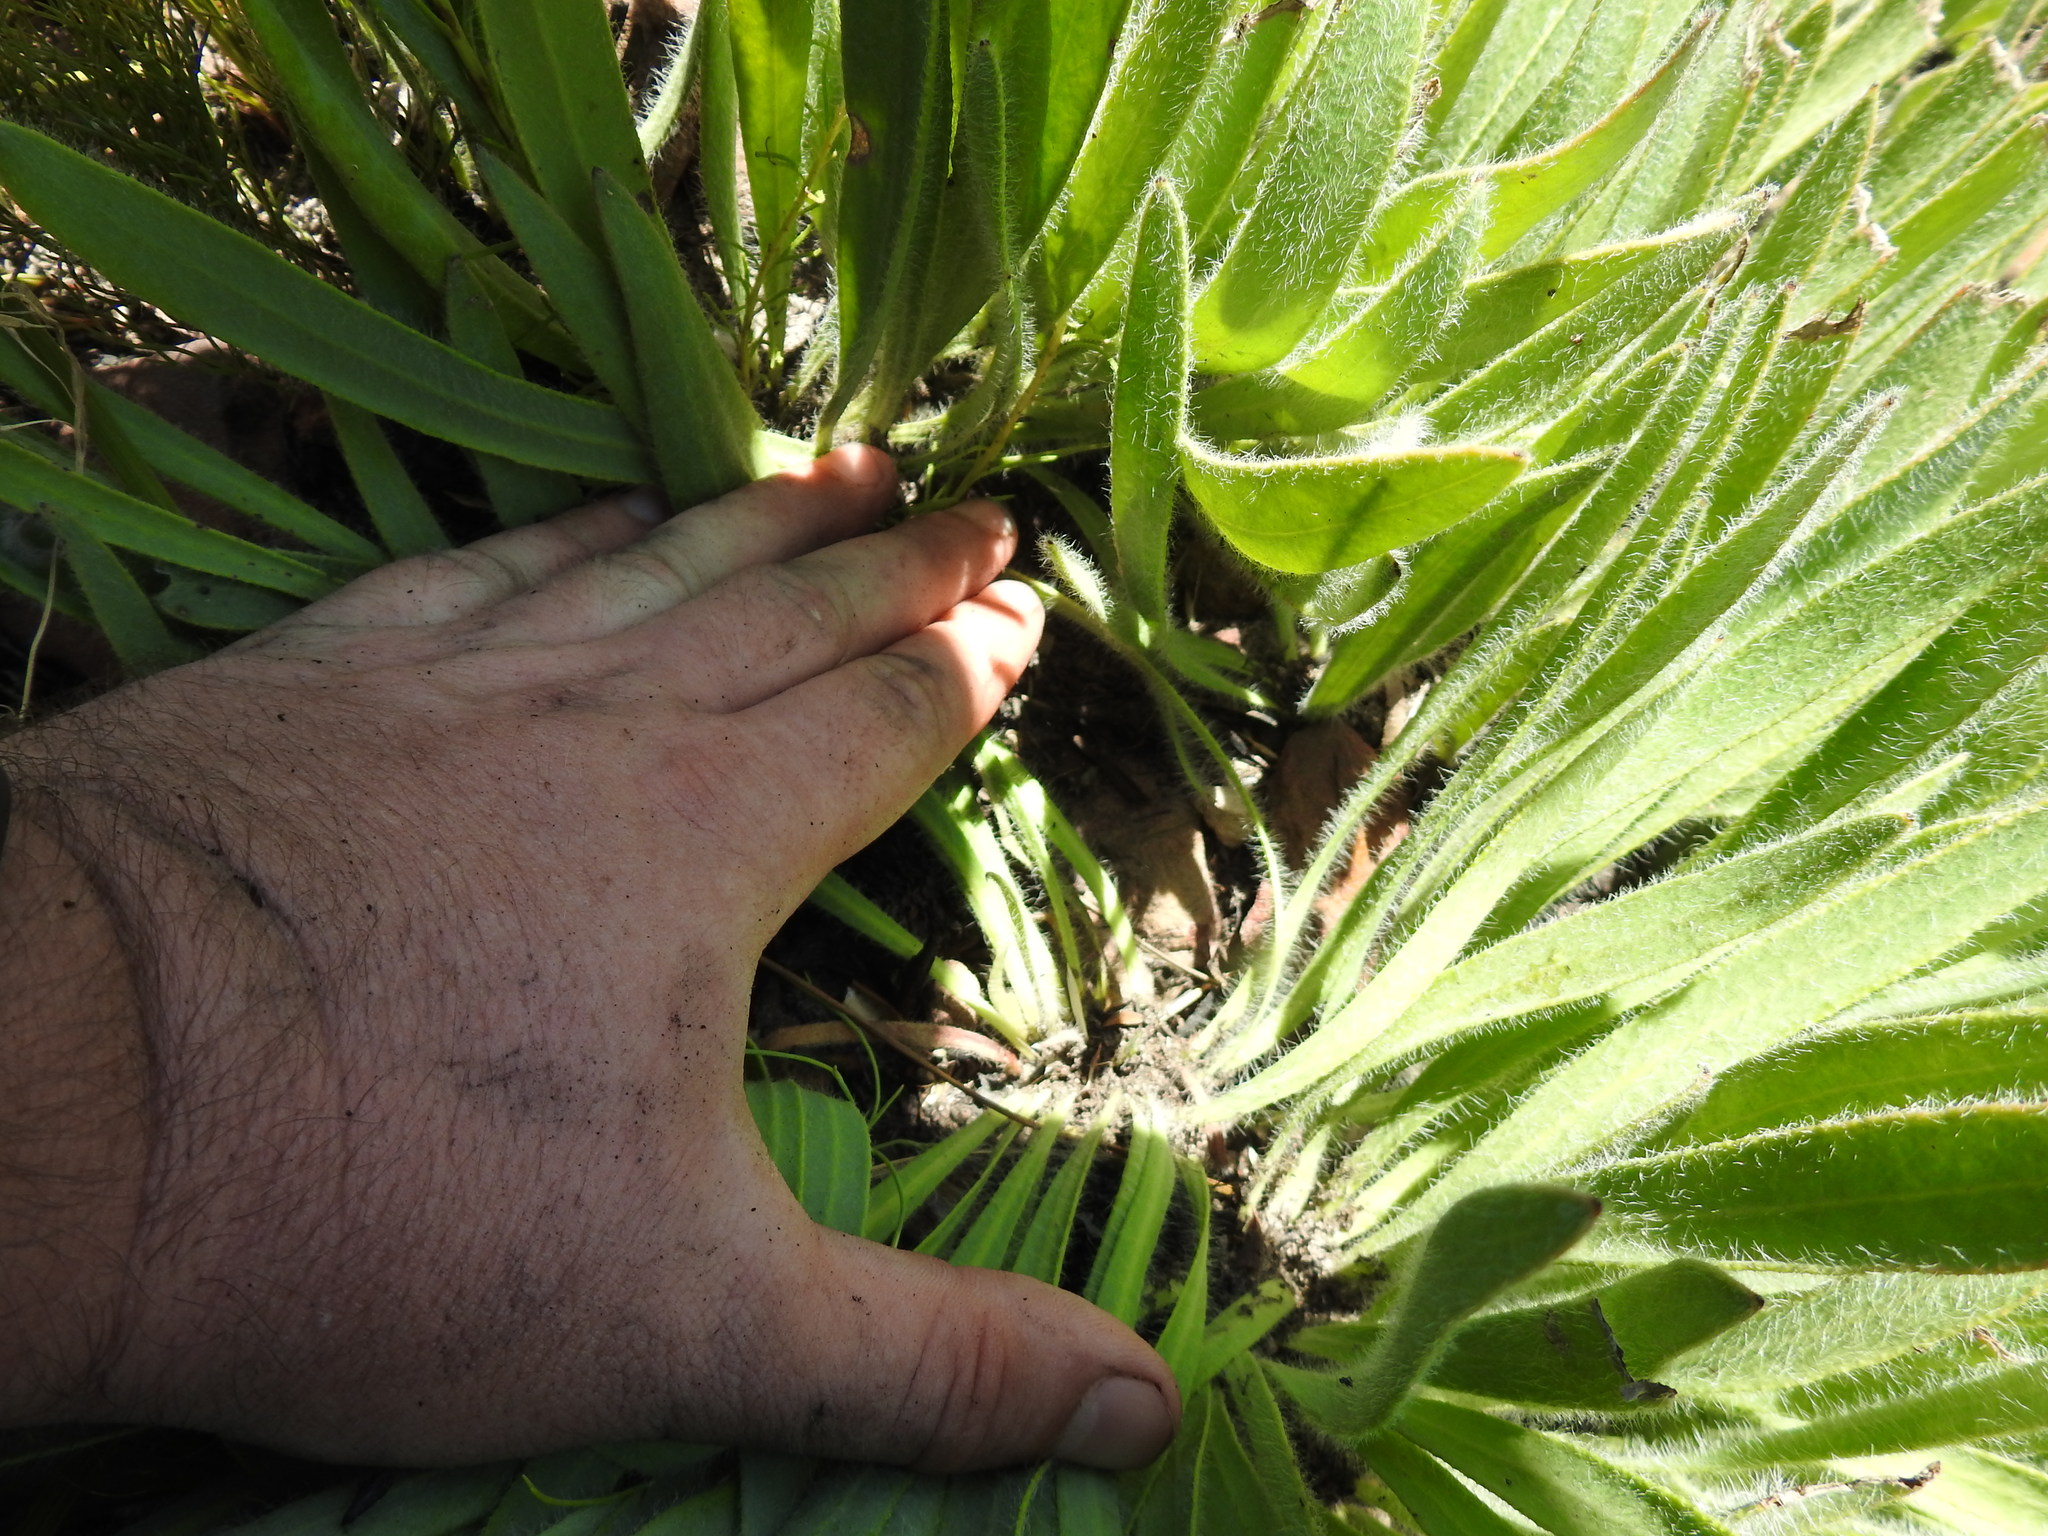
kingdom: Plantae
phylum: Tracheophyta
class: Magnoliopsida
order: Proteales
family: Proteaceae
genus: Protea
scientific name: Protea scabra
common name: Sandpaper-leaf sugarbush
